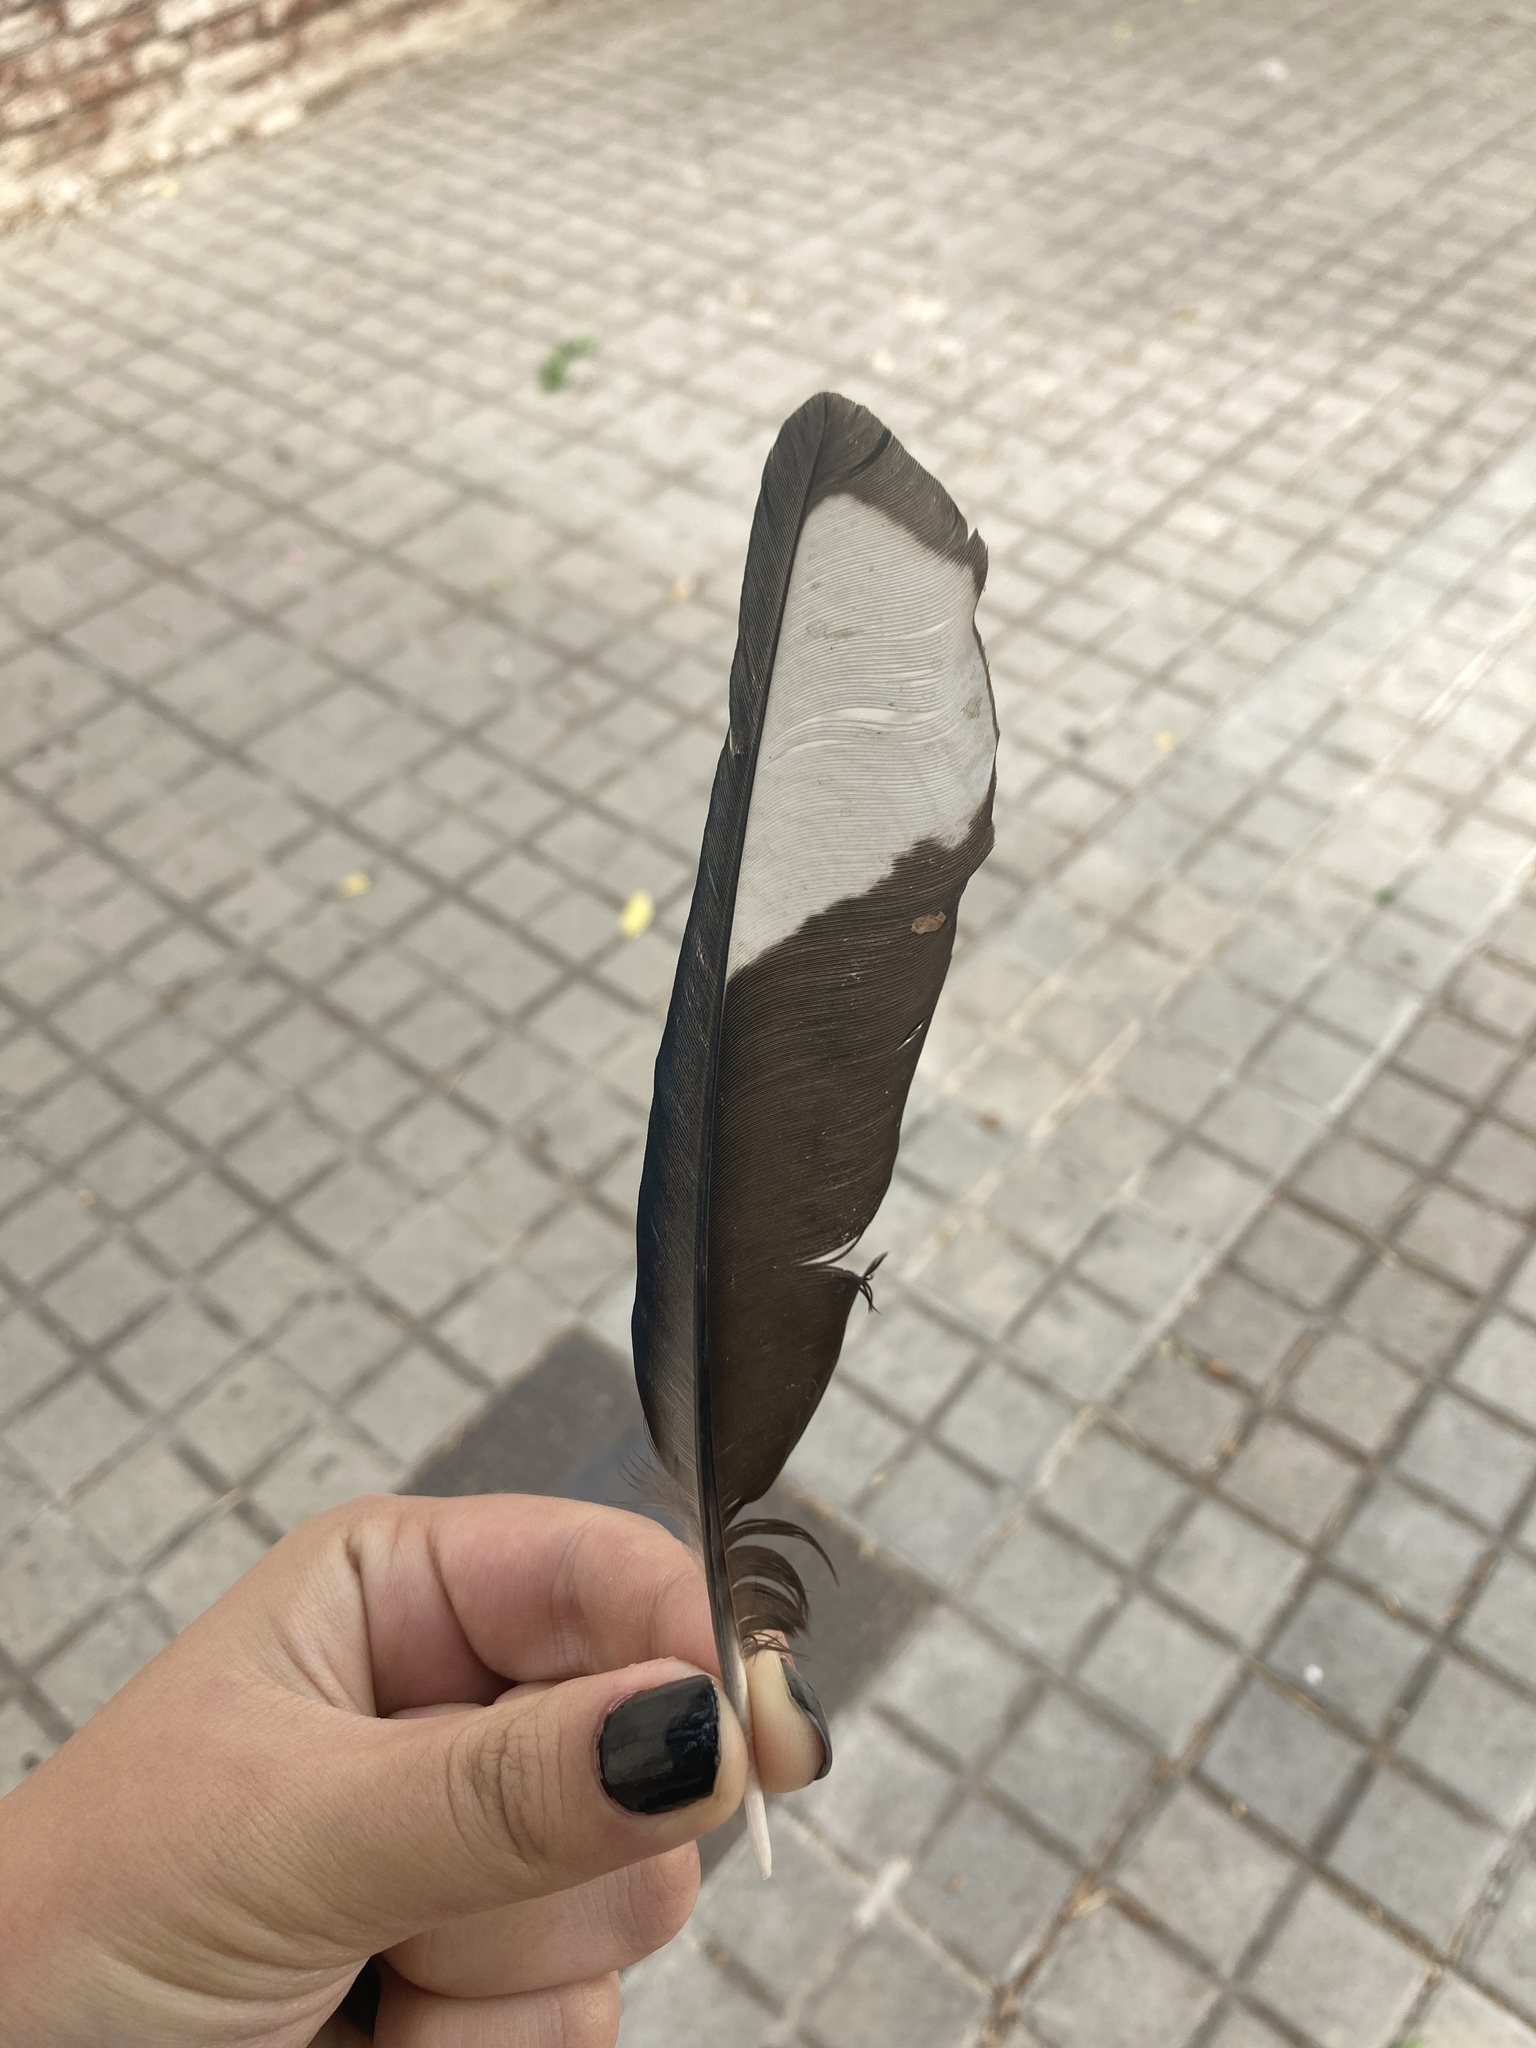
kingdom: Animalia
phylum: Chordata
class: Aves
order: Passeriformes
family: Corvidae
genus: Pica
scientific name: Pica pica
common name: Eurasian magpie
